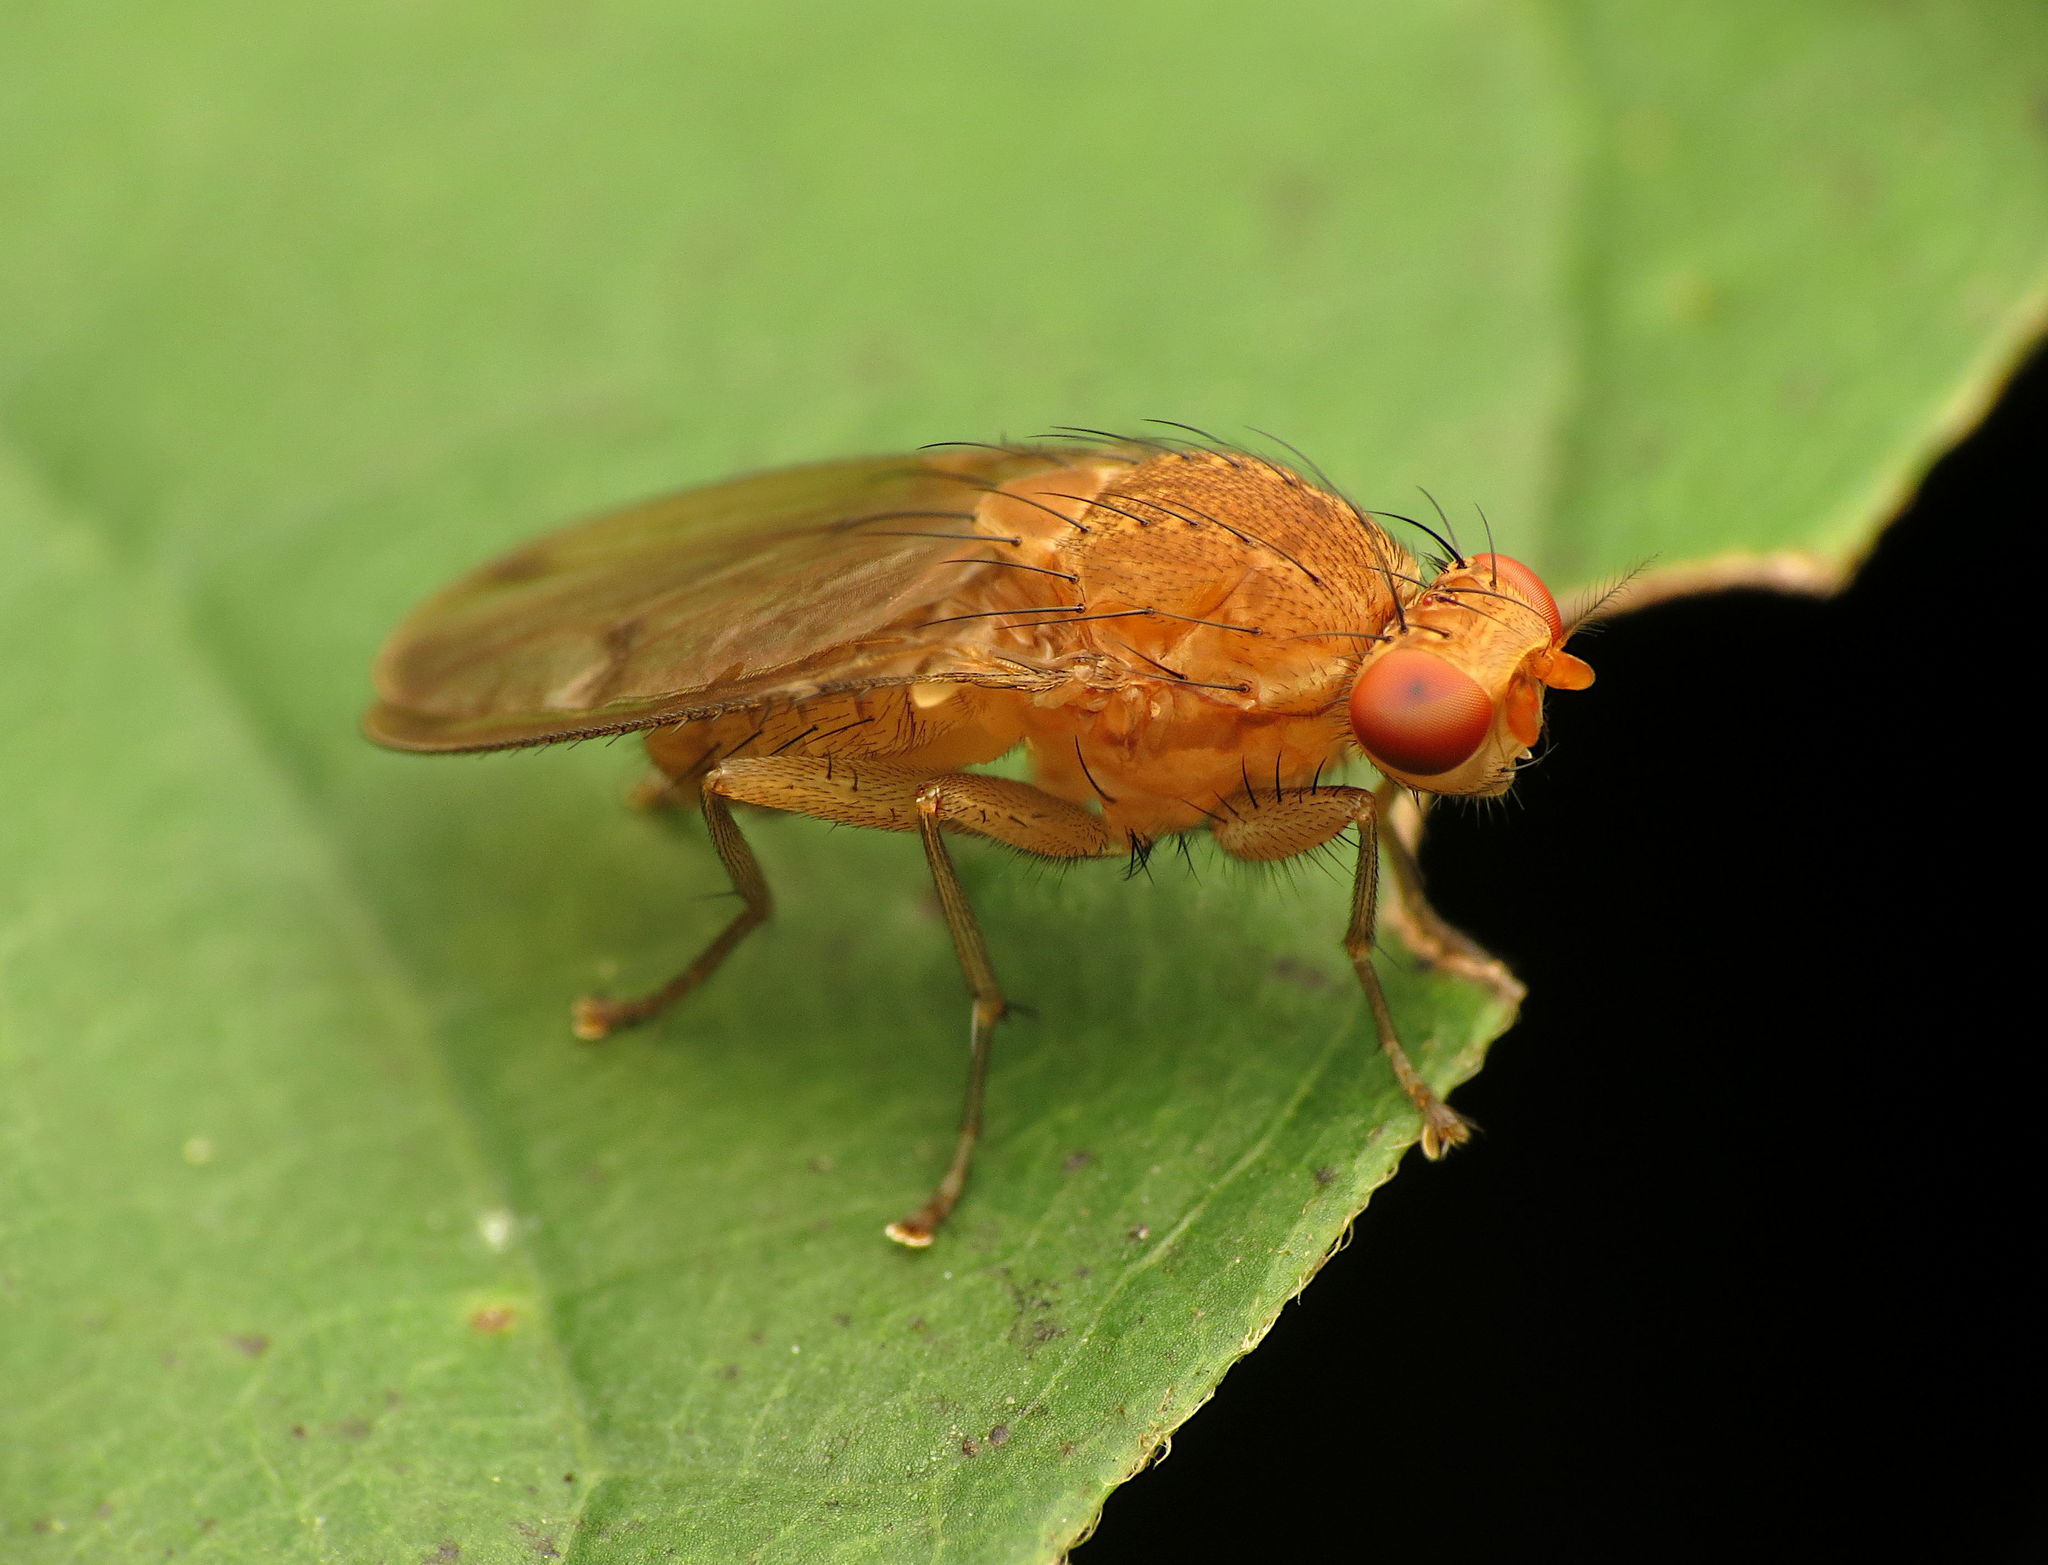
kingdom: Animalia
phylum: Arthropoda
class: Insecta
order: Diptera
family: Heleomyzidae
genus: Suillia
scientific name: Suillia plumata
